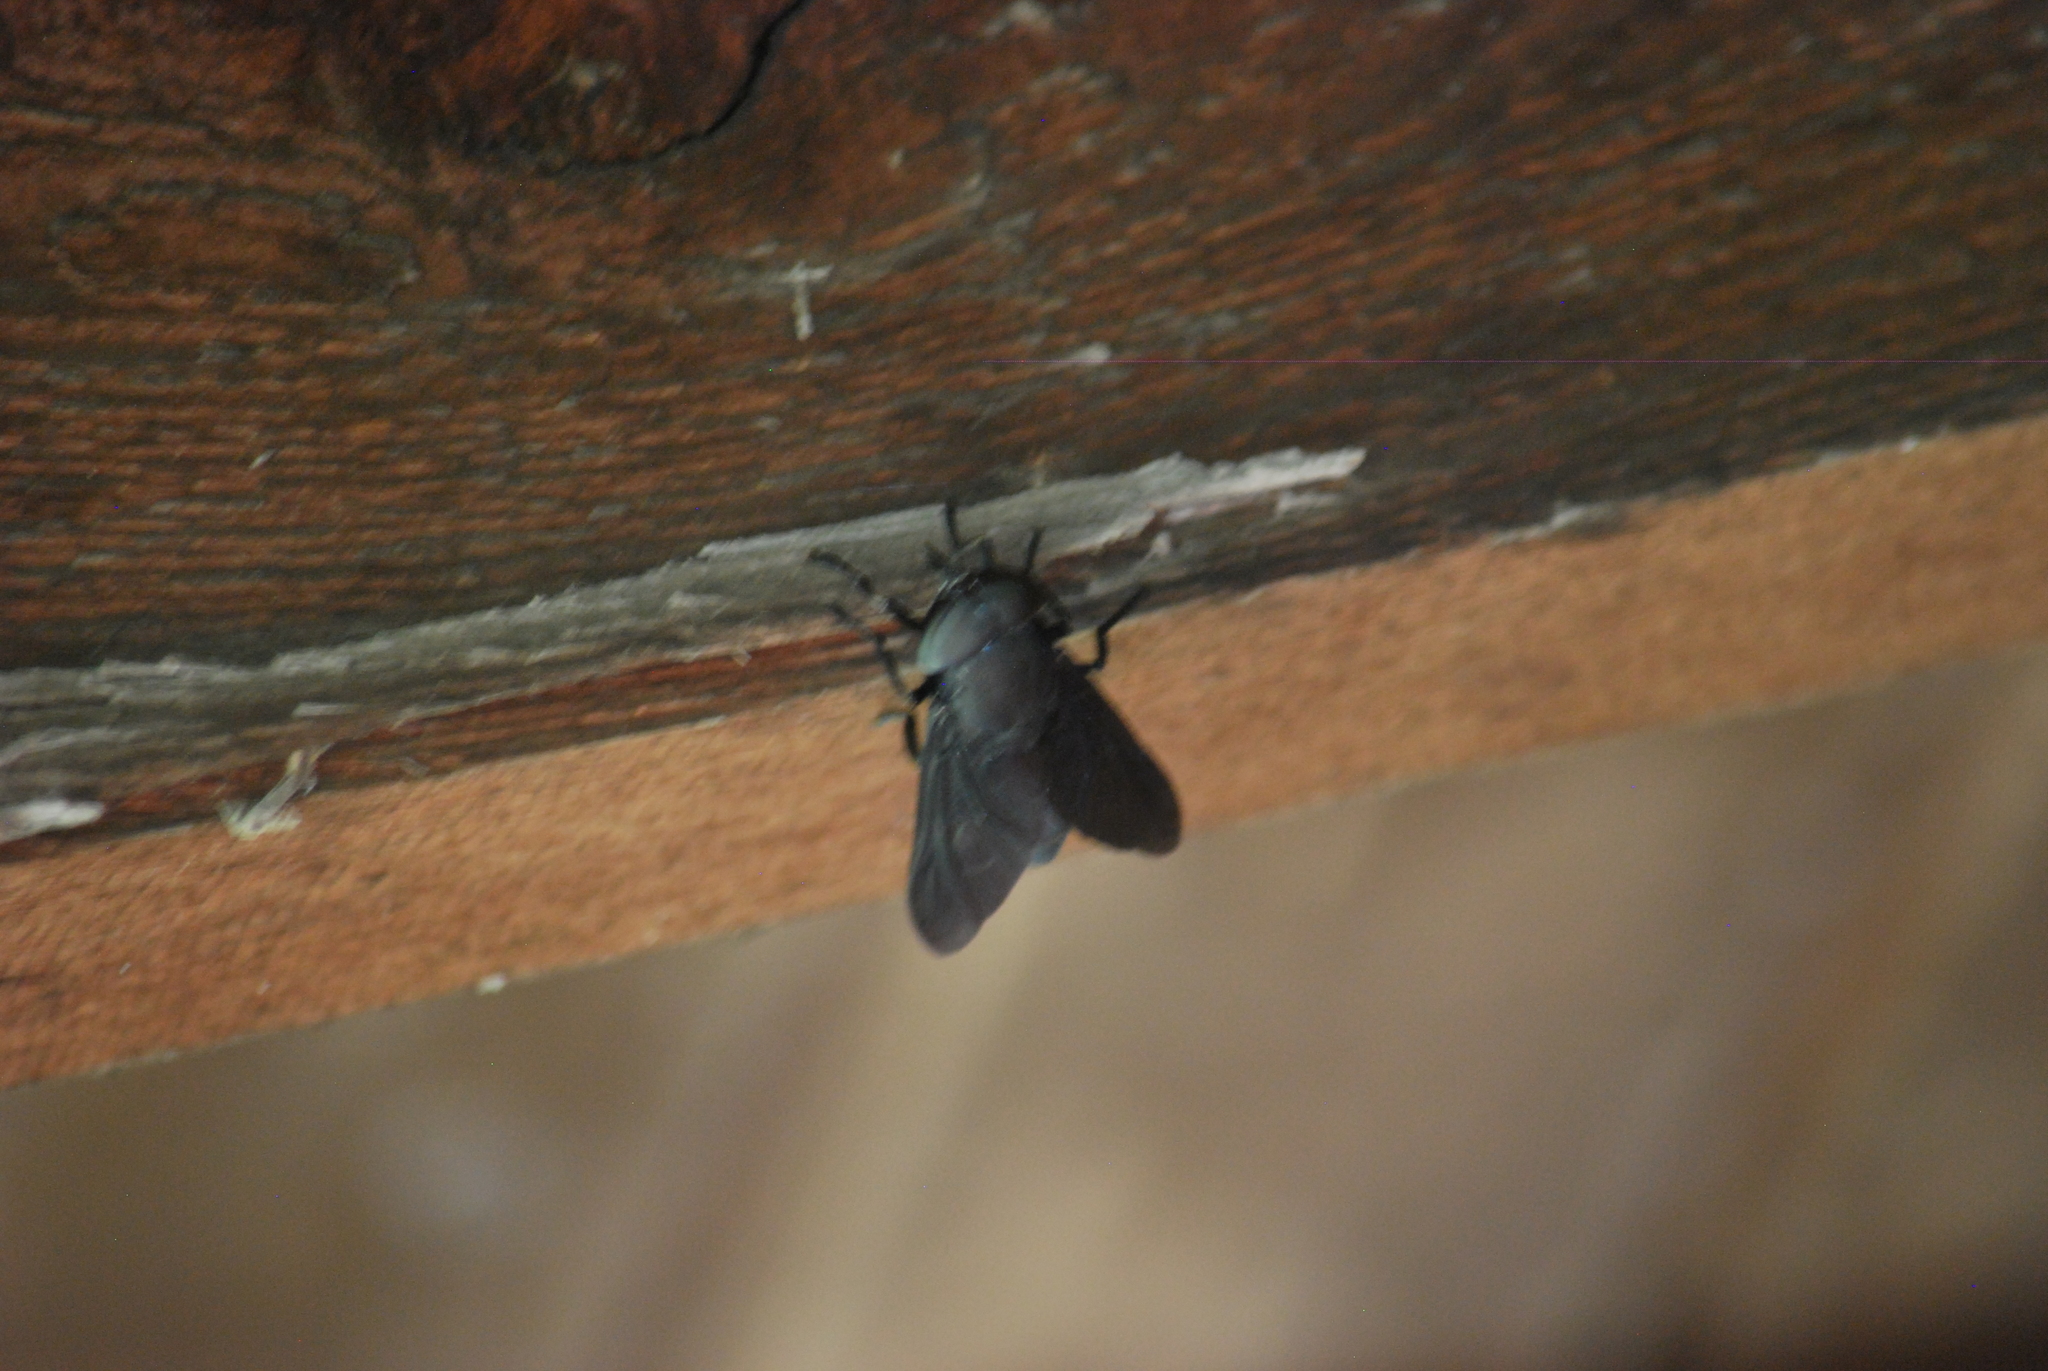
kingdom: Animalia
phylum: Arthropoda
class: Insecta
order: Diptera
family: Tabanidae
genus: Tabanus
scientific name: Tabanus atratus
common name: Black horse fly
